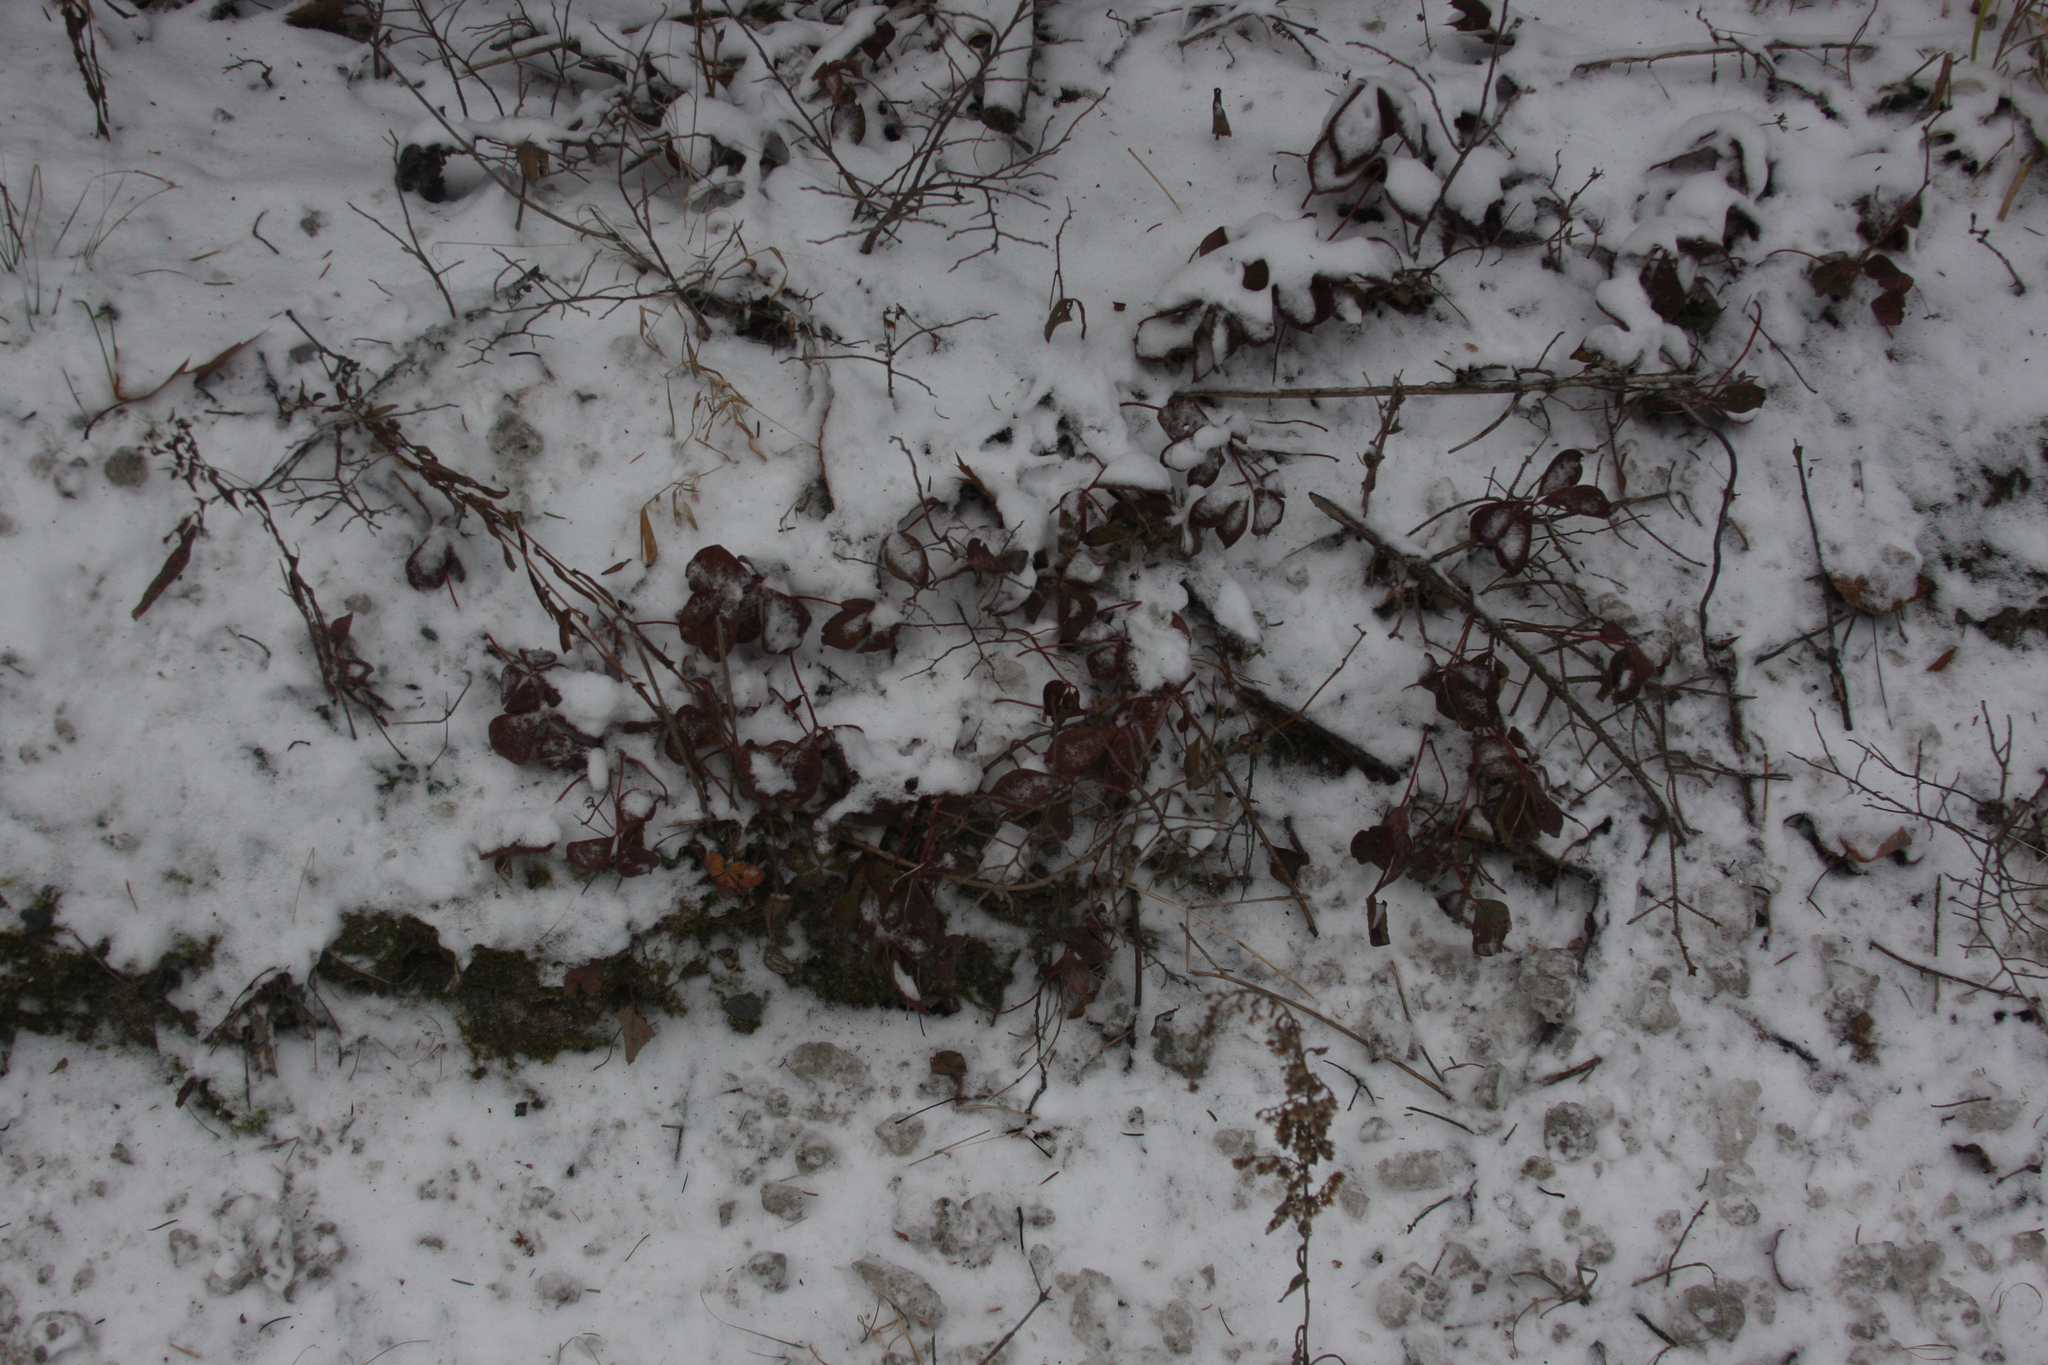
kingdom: Plantae
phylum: Tracheophyta
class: Magnoliopsida
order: Ericales
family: Ericaceae
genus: Gaultheria
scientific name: Gaultheria procumbens
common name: Checkerberry
